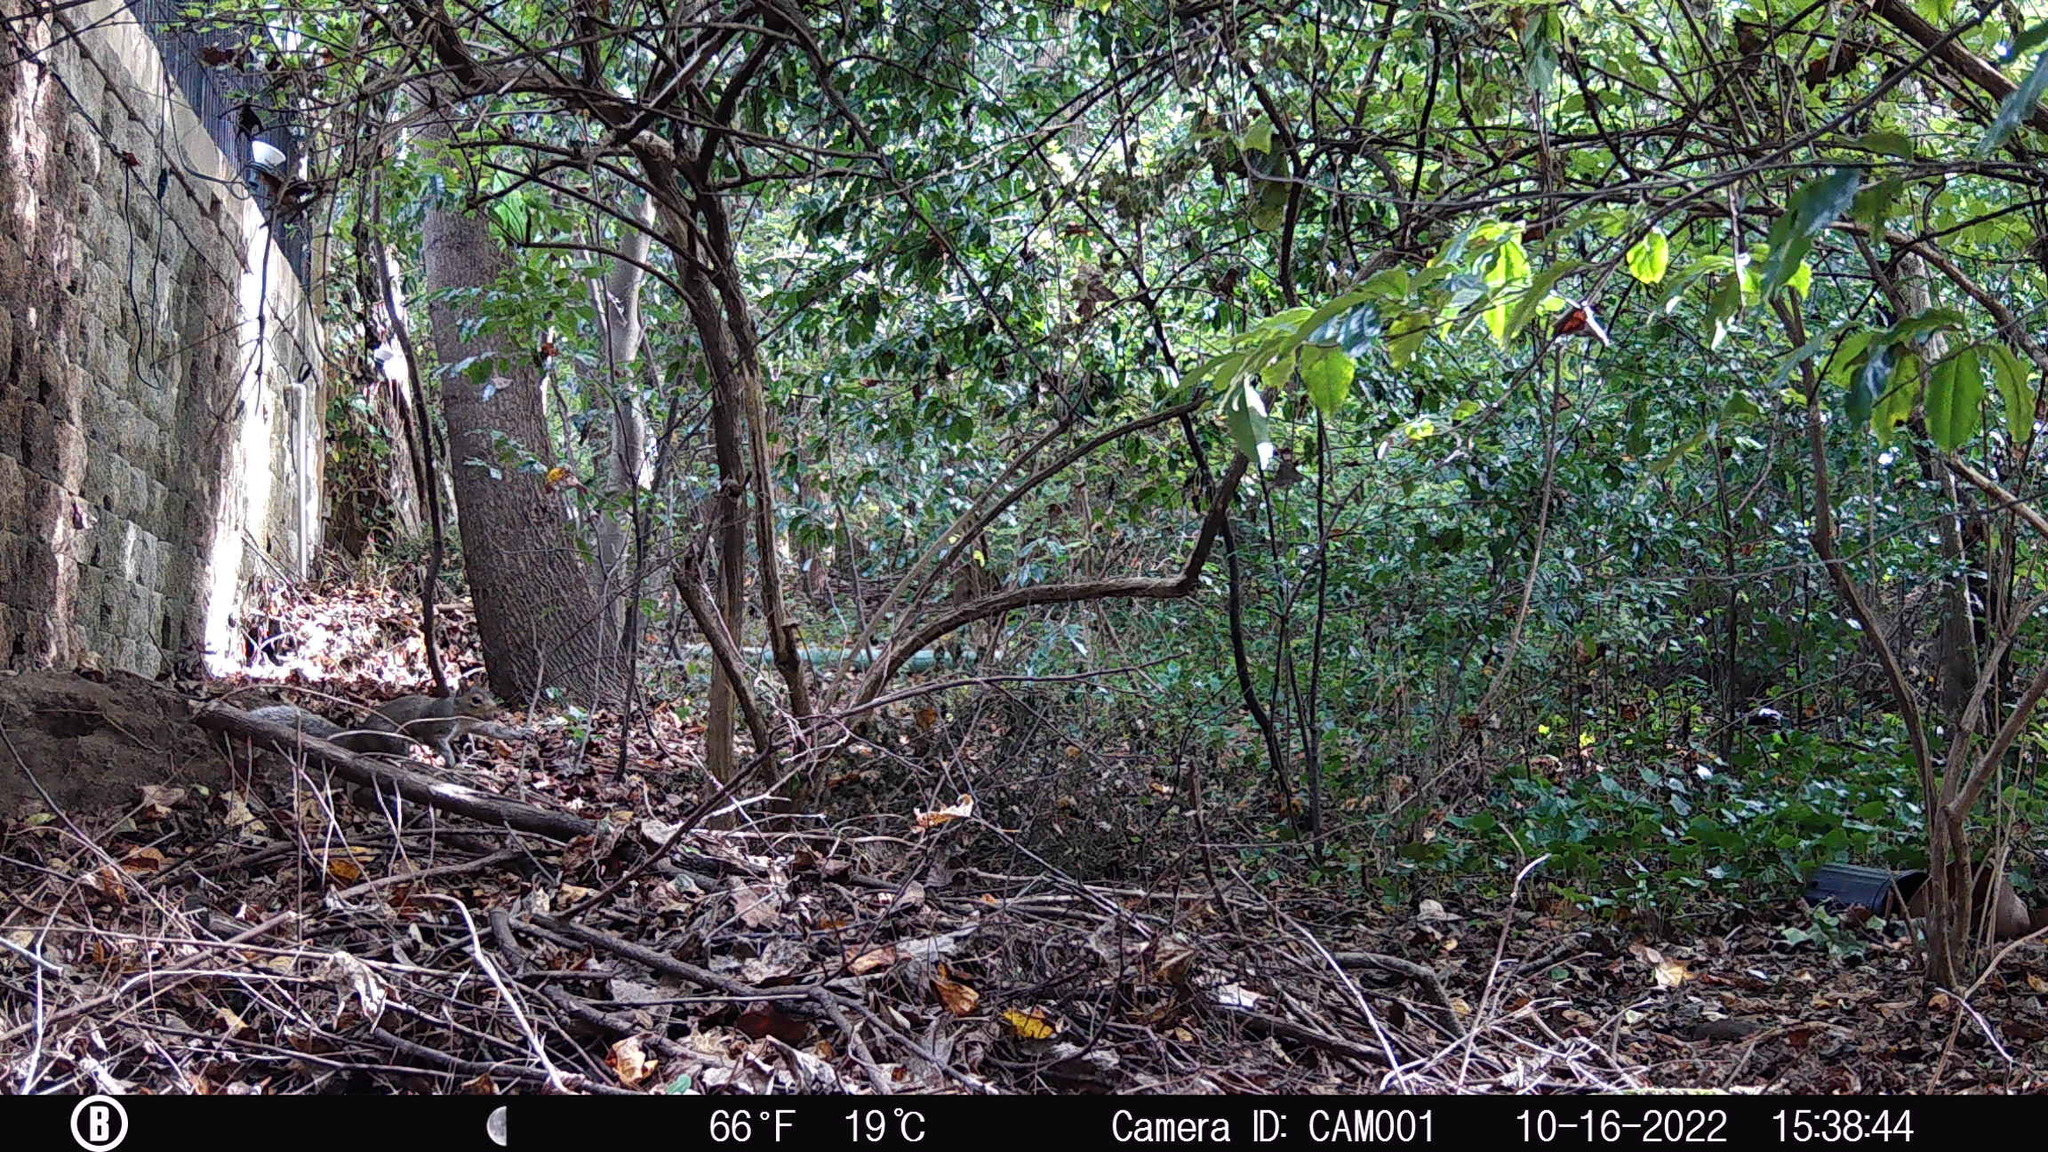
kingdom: Animalia
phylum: Chordata
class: Mammalia
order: Rodentia
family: Sciuridae
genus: Sciurus
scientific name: Sciurus carolinensis
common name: Eastern gray squirrel
